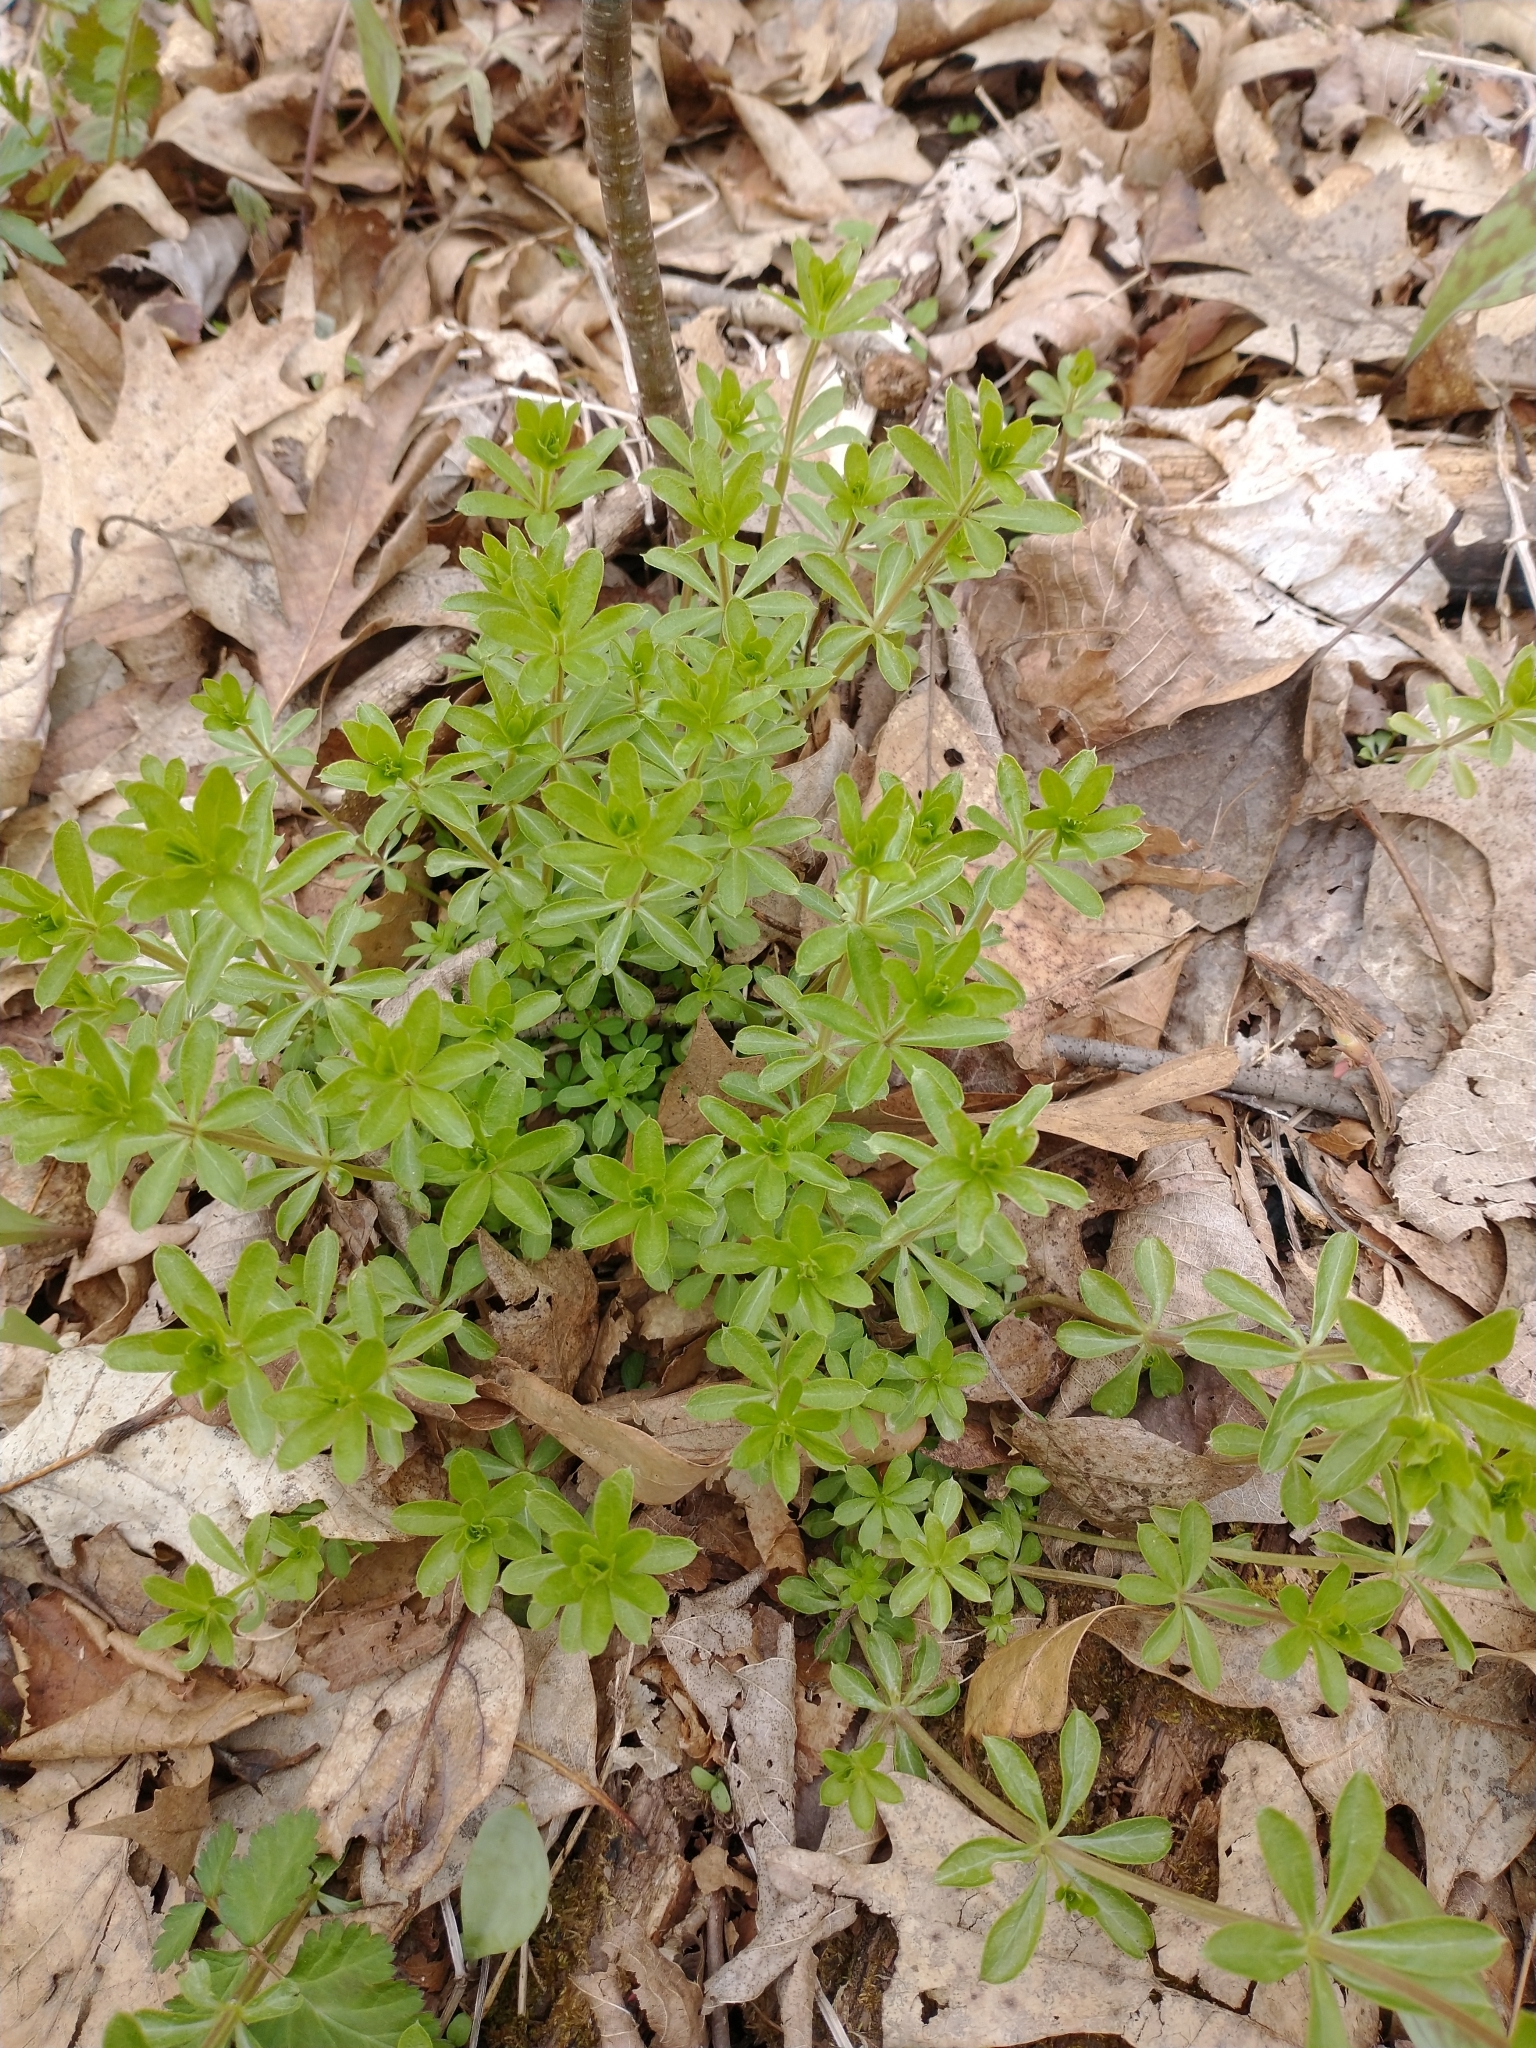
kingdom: Plantae
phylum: Tracheophyta
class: Magnoliopsida
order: Gentianales
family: Rubiaceae
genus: Galium
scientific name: Galium triflorum
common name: Fragrant bedstraw
